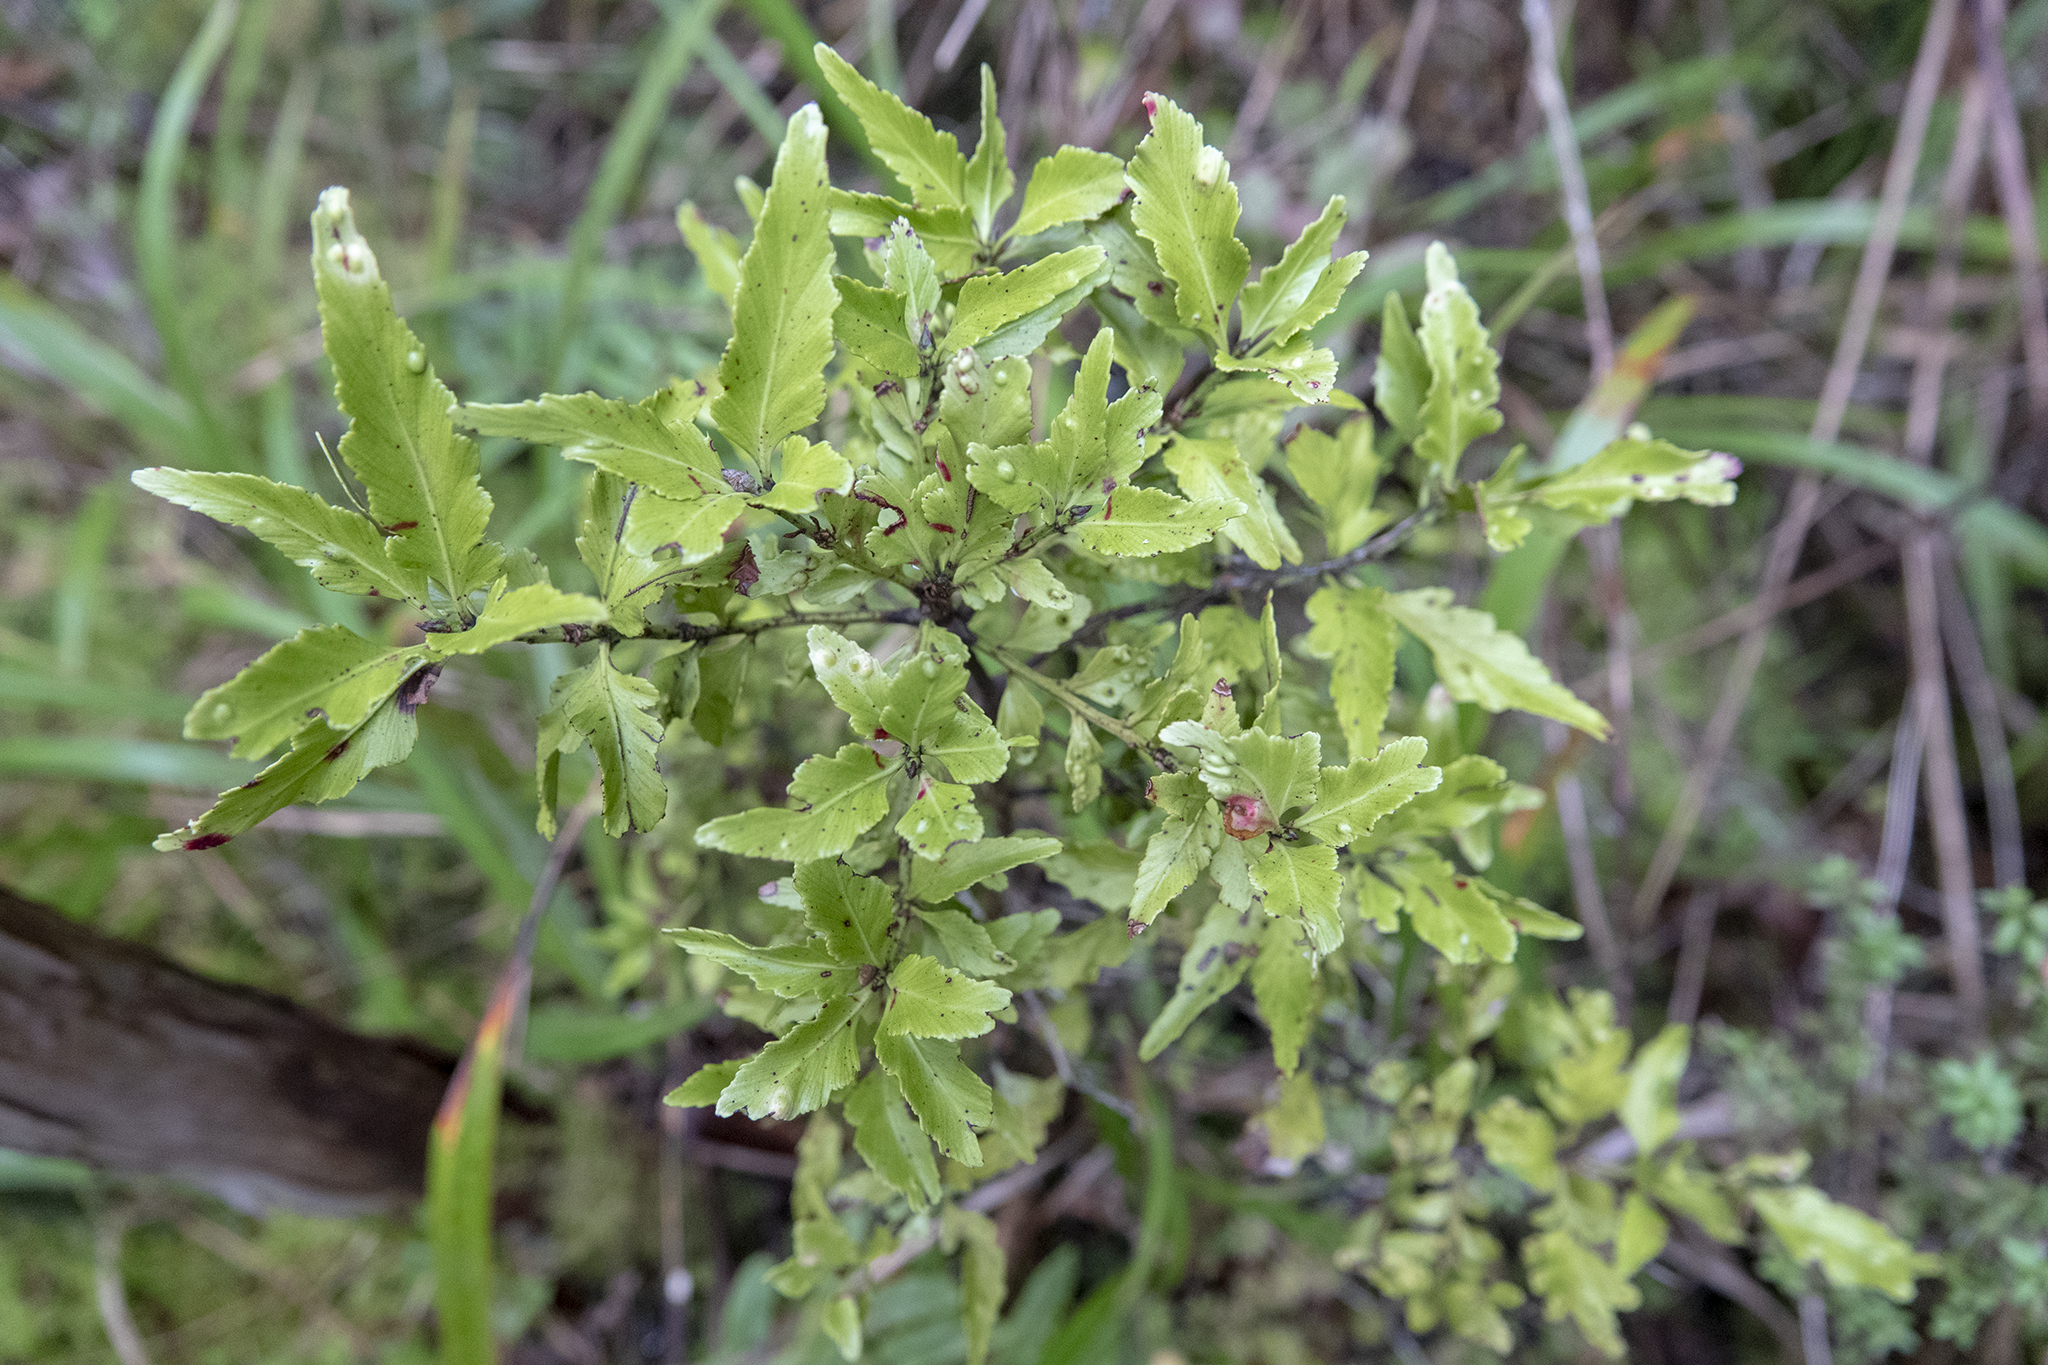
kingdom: Plantae
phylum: Tracheophyta
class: Pinopsida
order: Pinales
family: Phyllocladaceae
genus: Phyllocladus
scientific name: Phyllocladus trichomanoides
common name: Celery pine
